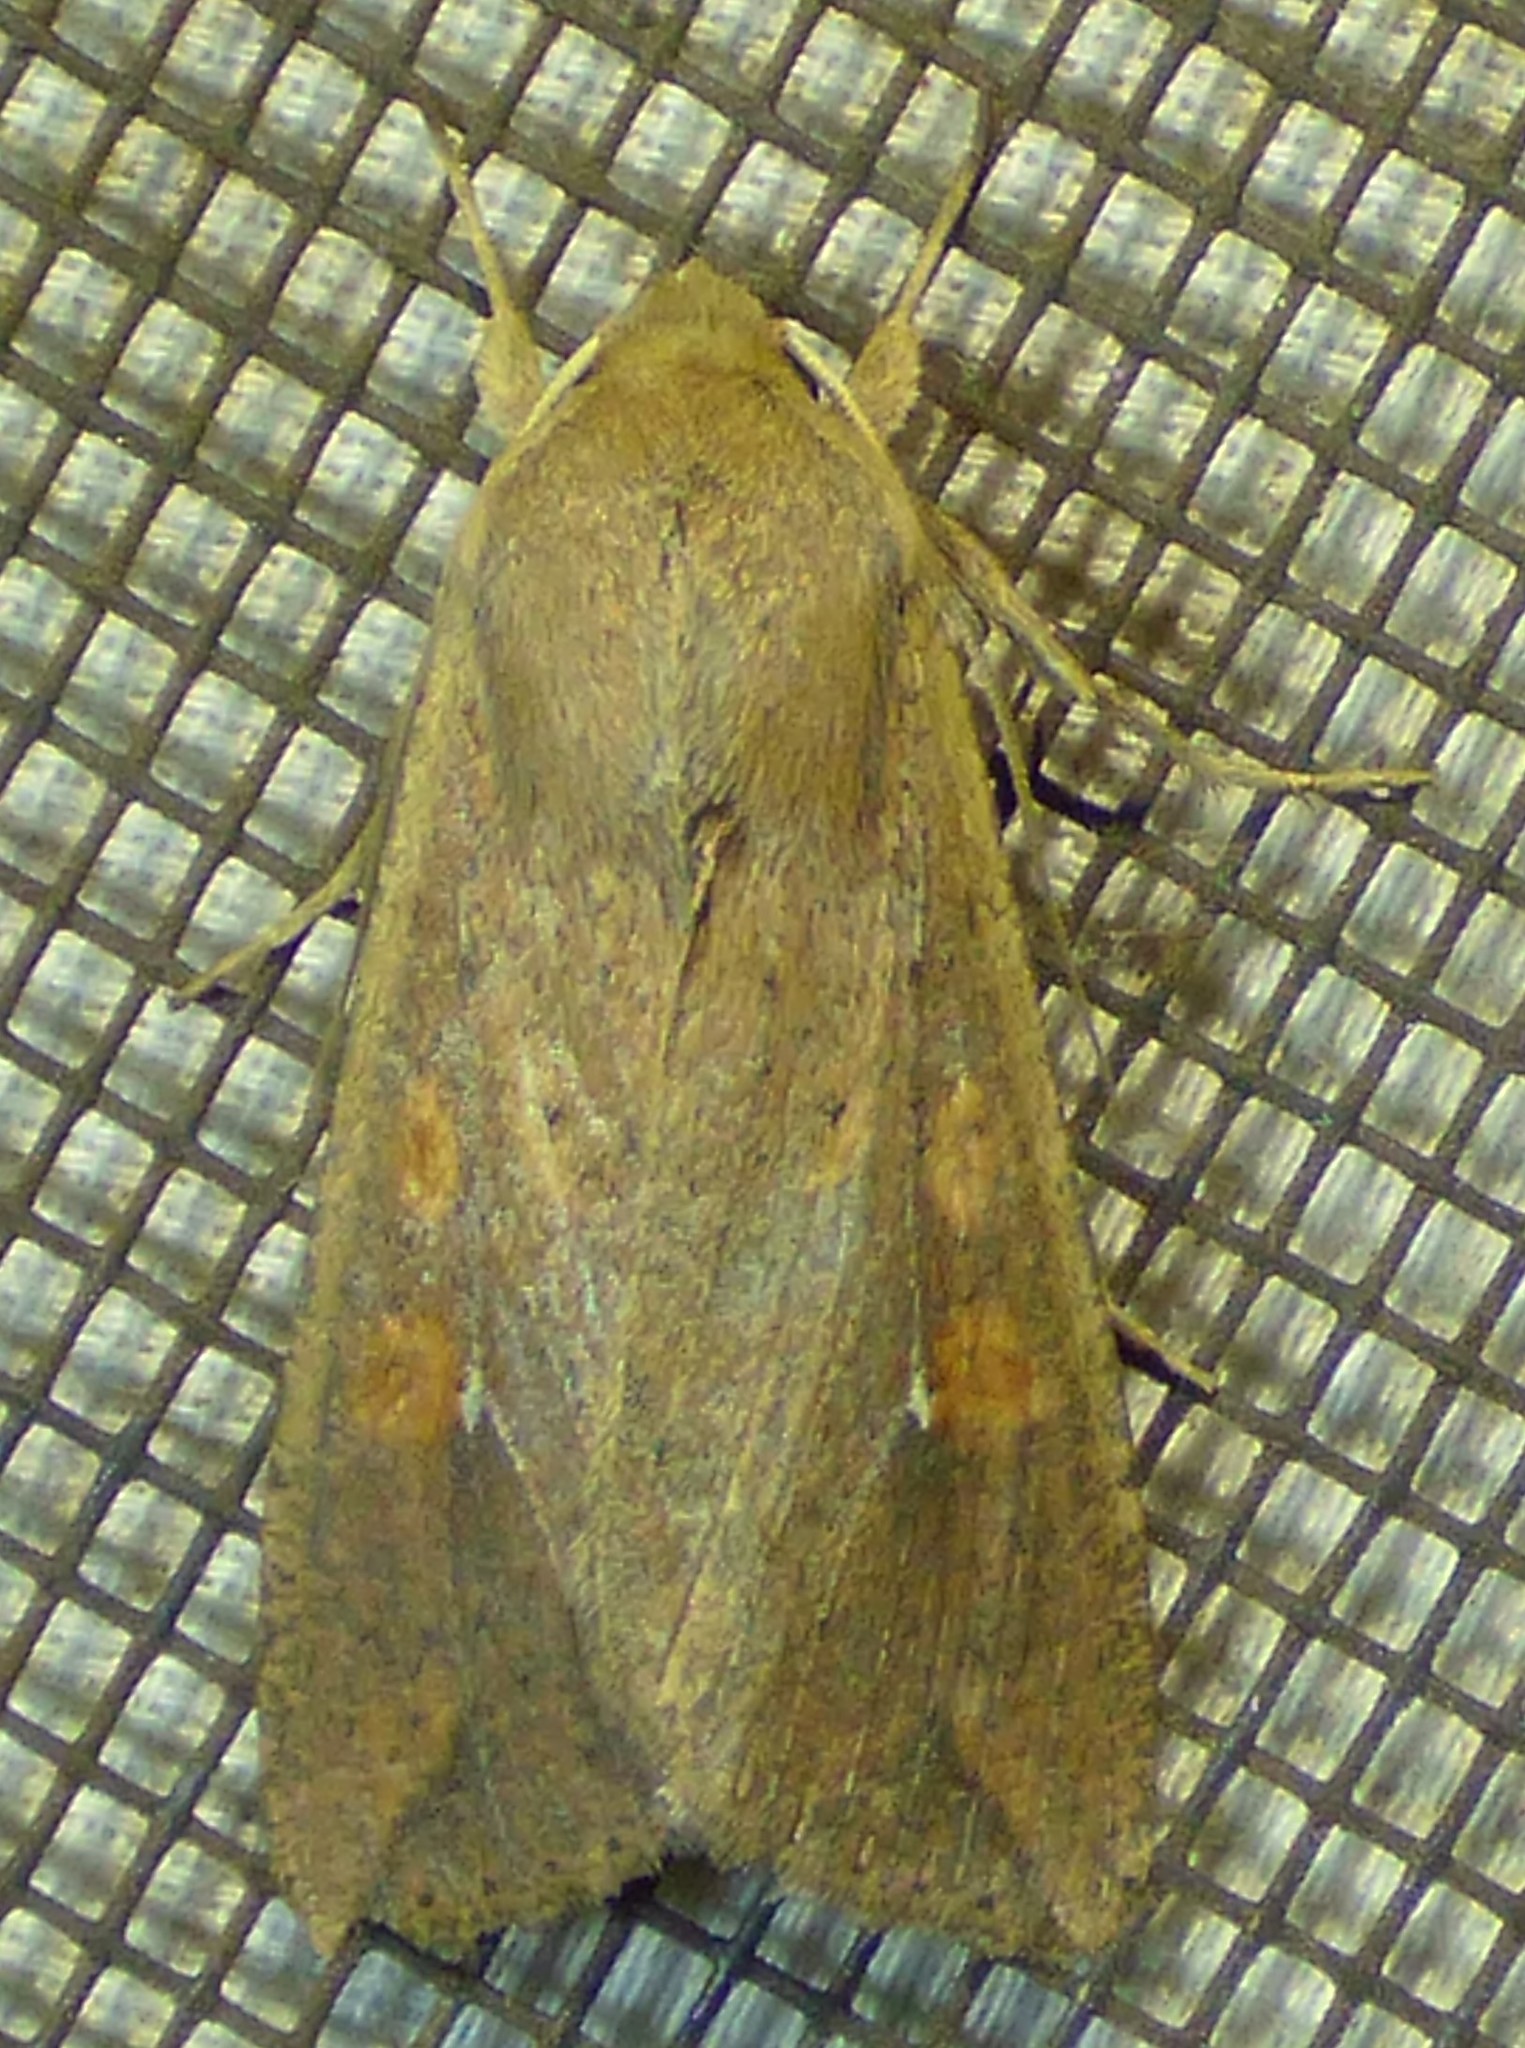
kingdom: Animalia
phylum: Arthropoda
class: Insecta
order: Lepidoptera
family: Noctuidae
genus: Mythimna
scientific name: Mythimna unipuncta
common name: White-speck
